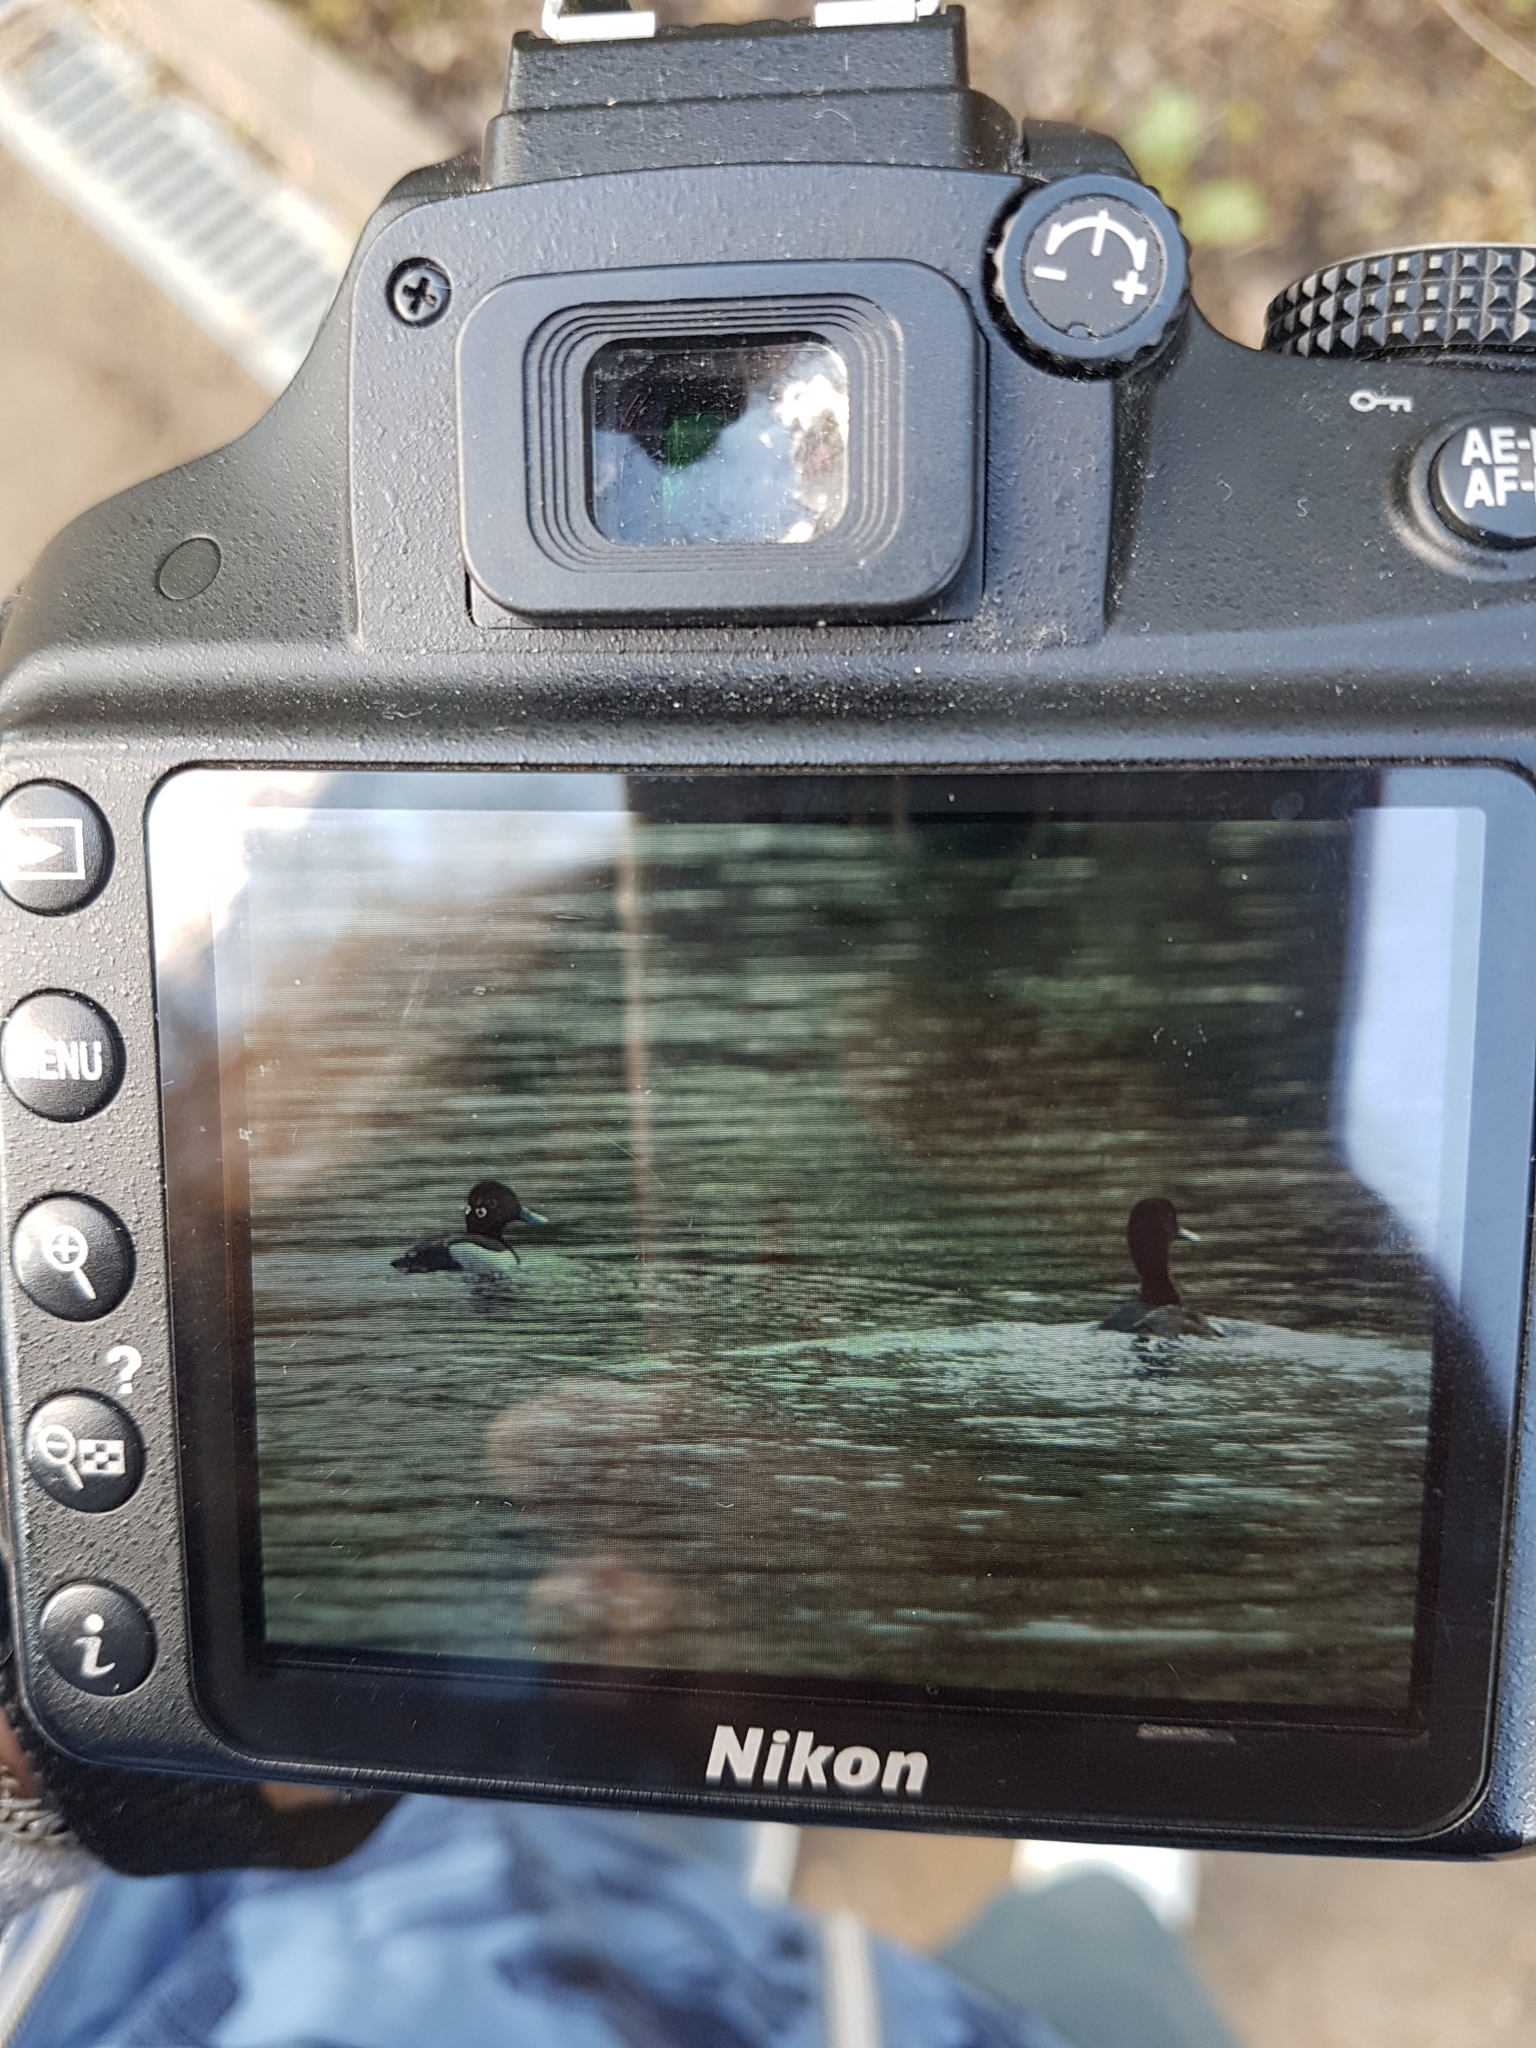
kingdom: Animalia
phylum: Chordata
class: Aves
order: Anseriformes
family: Anatidae
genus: Aythya
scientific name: Aythya fuligula
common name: Tufted duck
